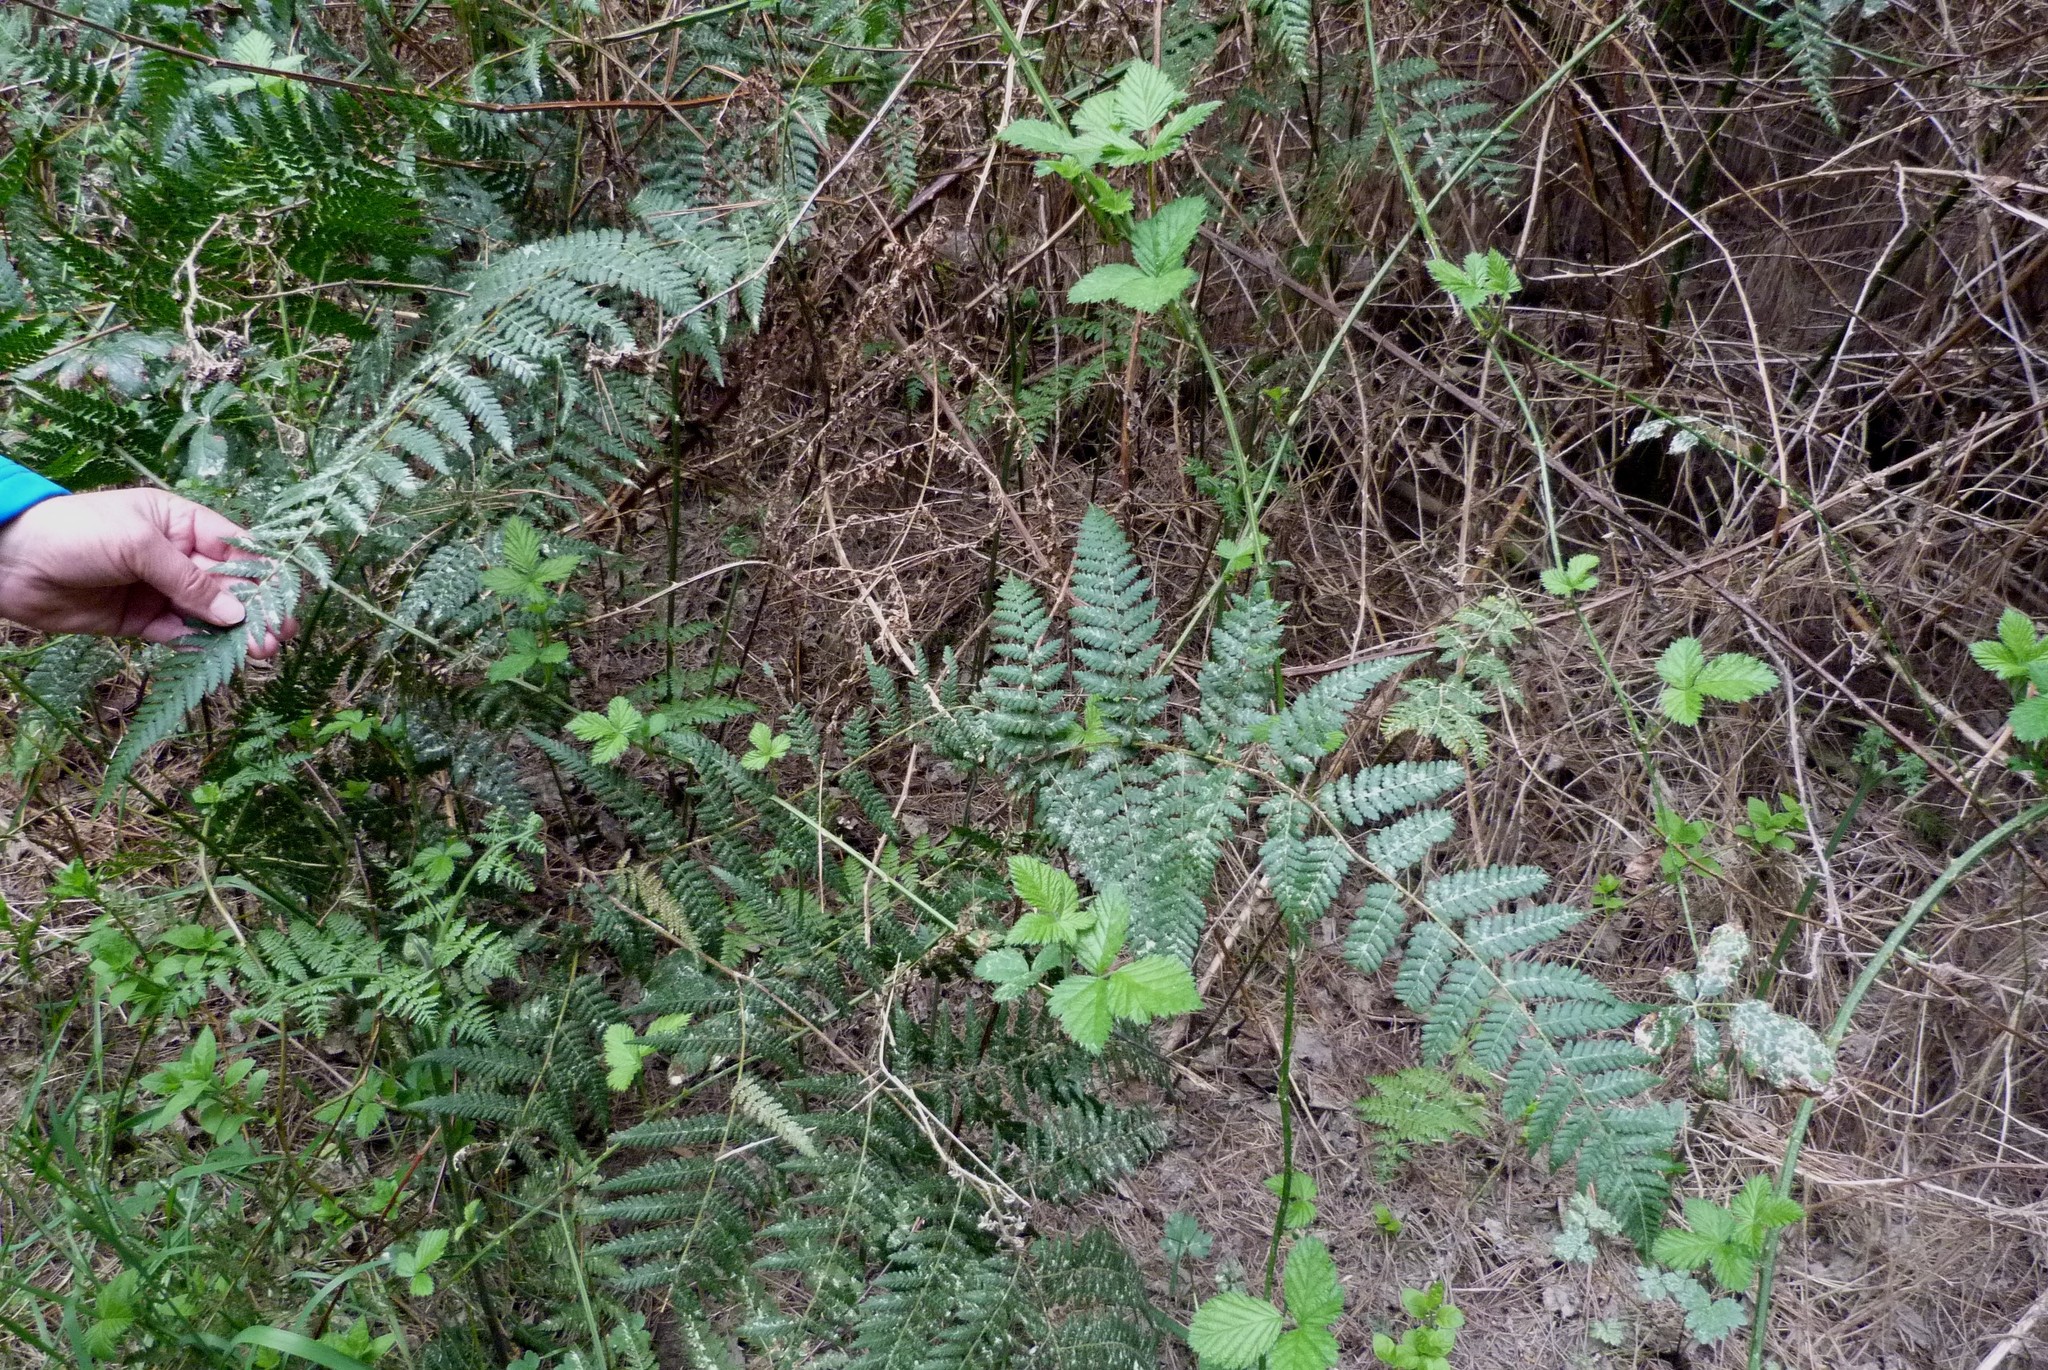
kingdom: Plantae
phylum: Tracheophyta
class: Polypodiopsida
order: Polypodiales
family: Dennstaedtiaceae
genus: Hypolepis
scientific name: Hypolepis ambigua
